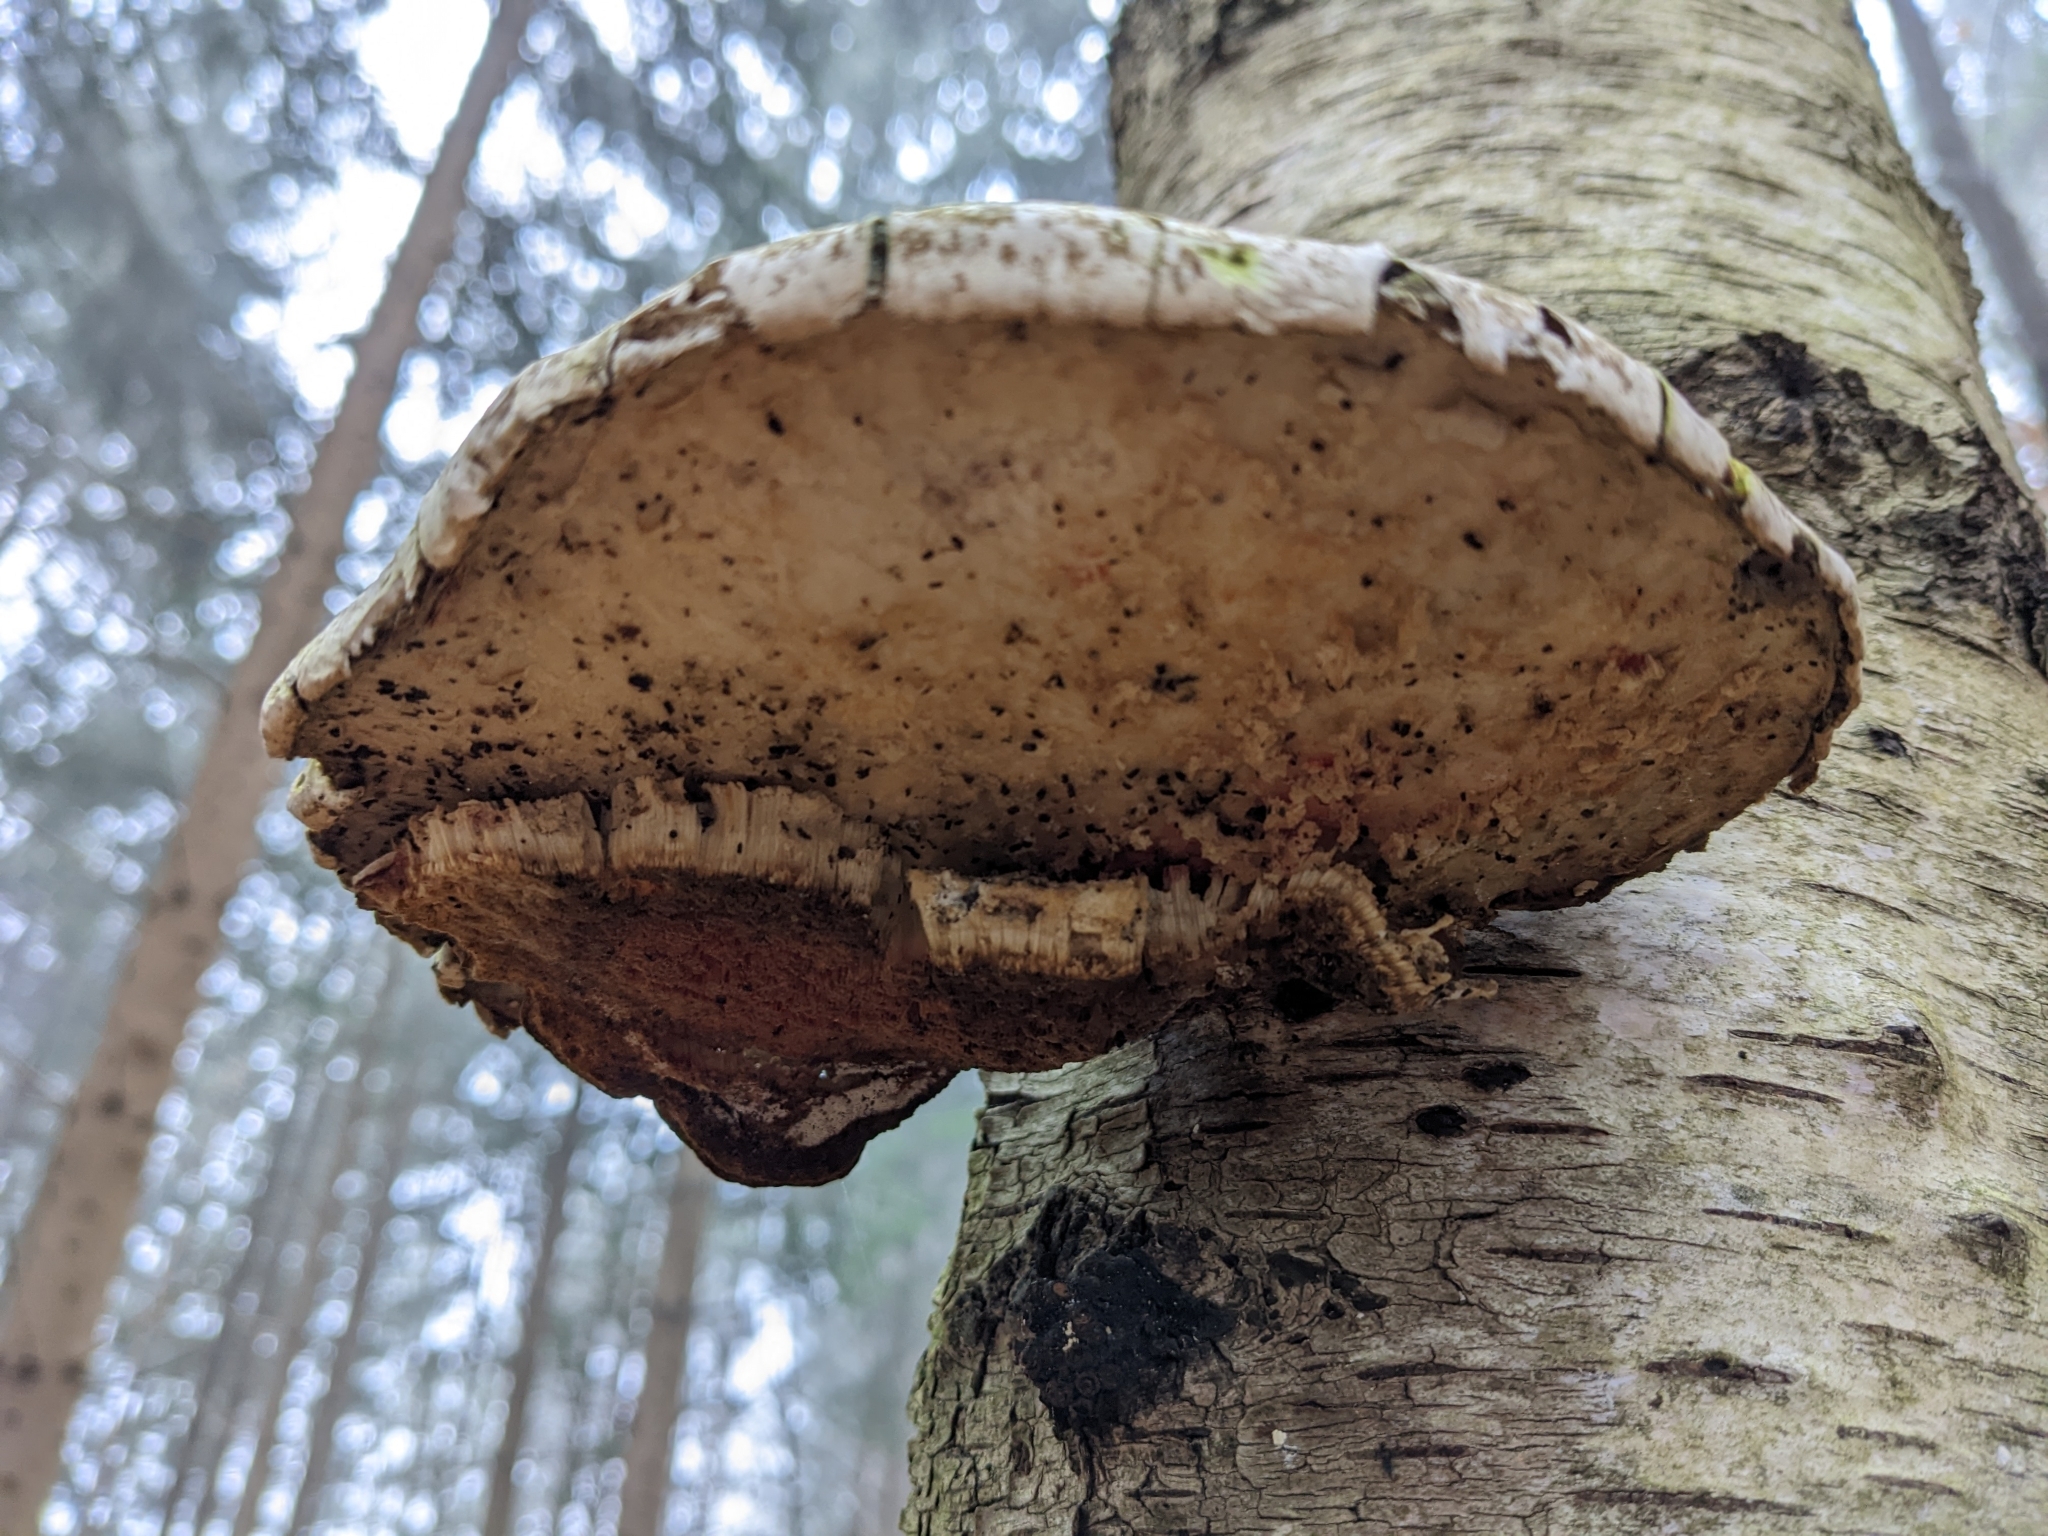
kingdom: Fungi
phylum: Basidiomycota
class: Agaricomycetes
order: Polyporales
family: Fomitopsidaceae
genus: Fomitopsis
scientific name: Fomitopsis betulina
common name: Birch polypore
